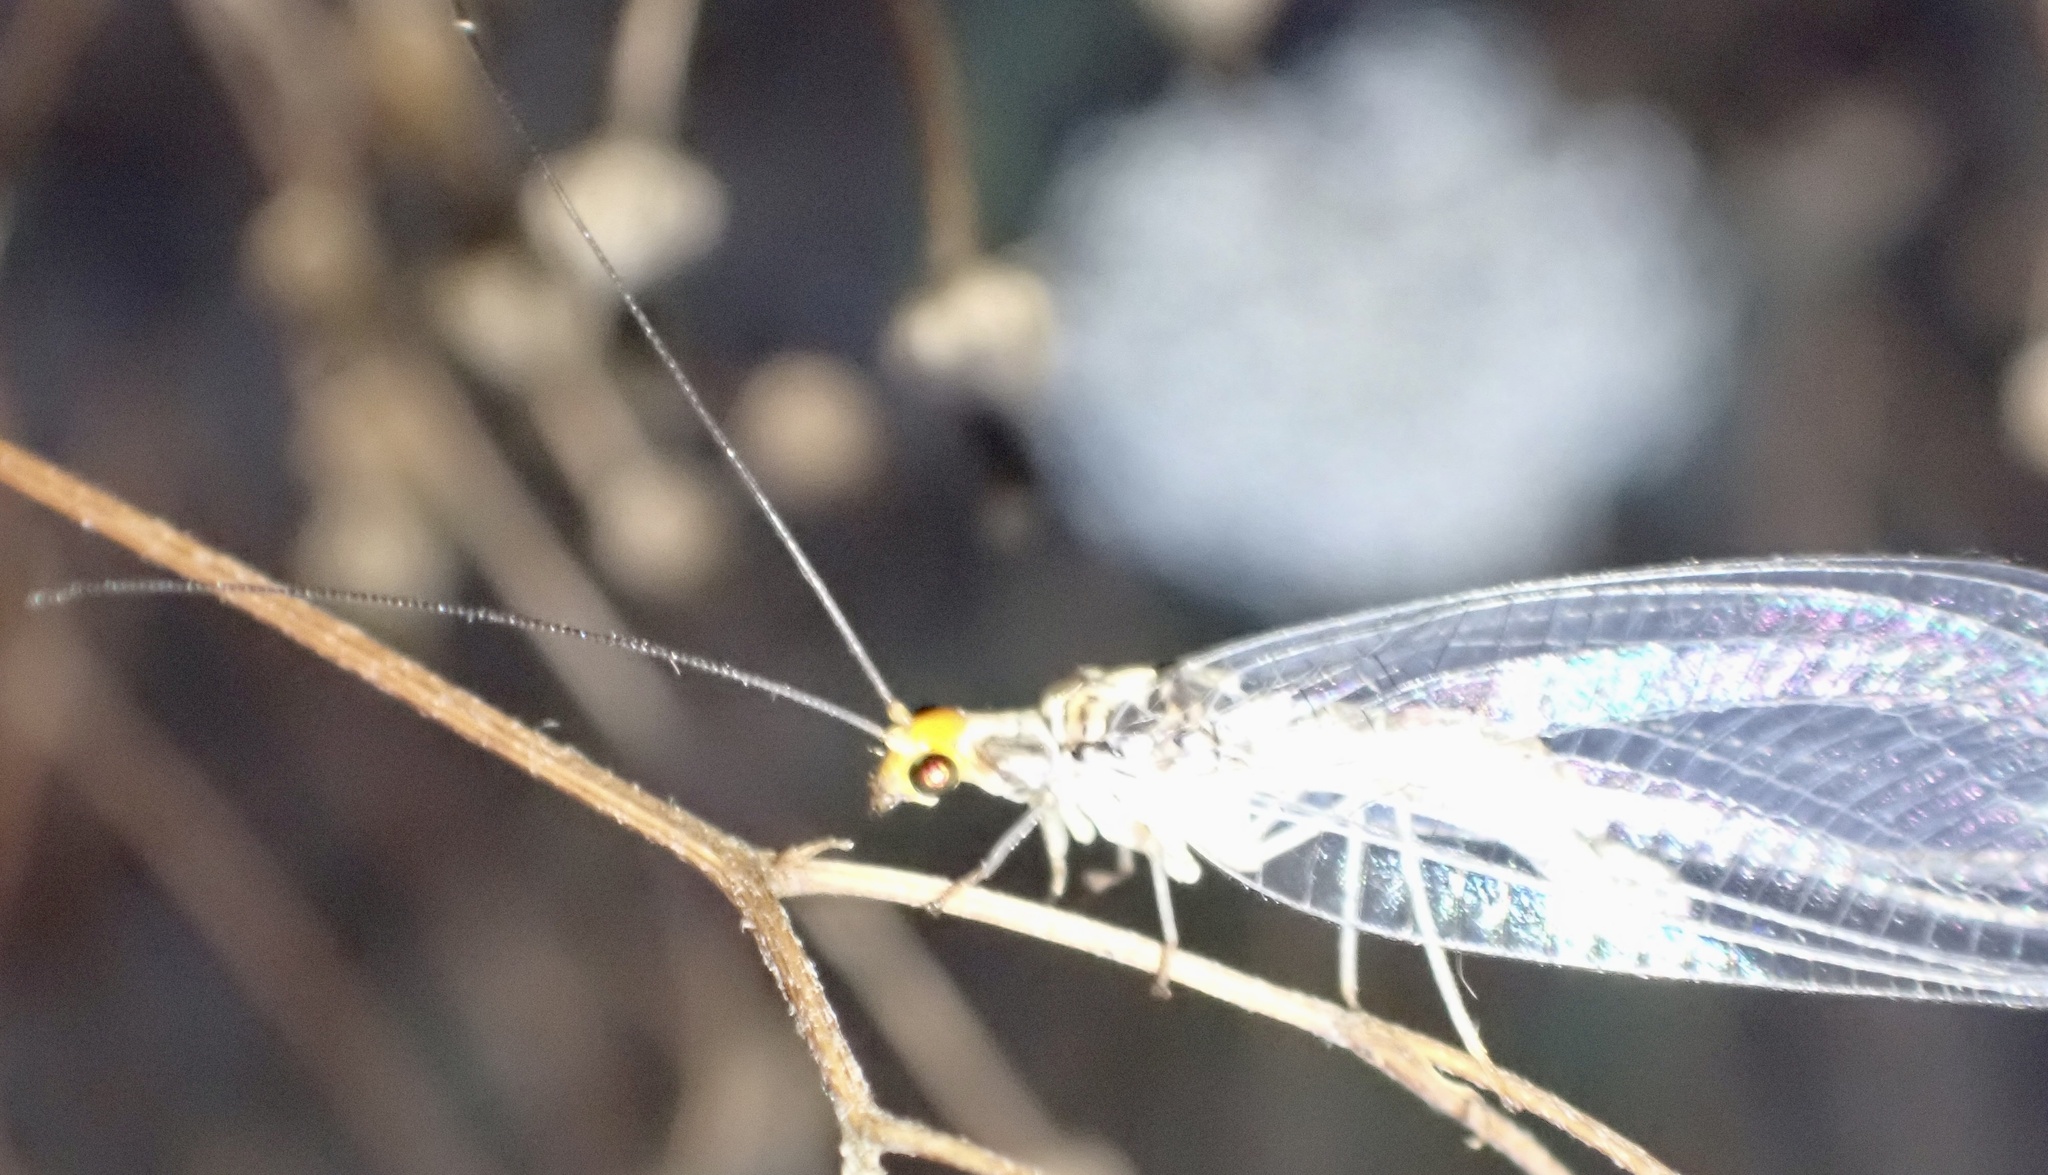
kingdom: Animalia
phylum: Arthropoda
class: Insecta
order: Neuroptera
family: Chrysopidae
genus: Nothochrysa
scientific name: Nothochrysa fulviceps
